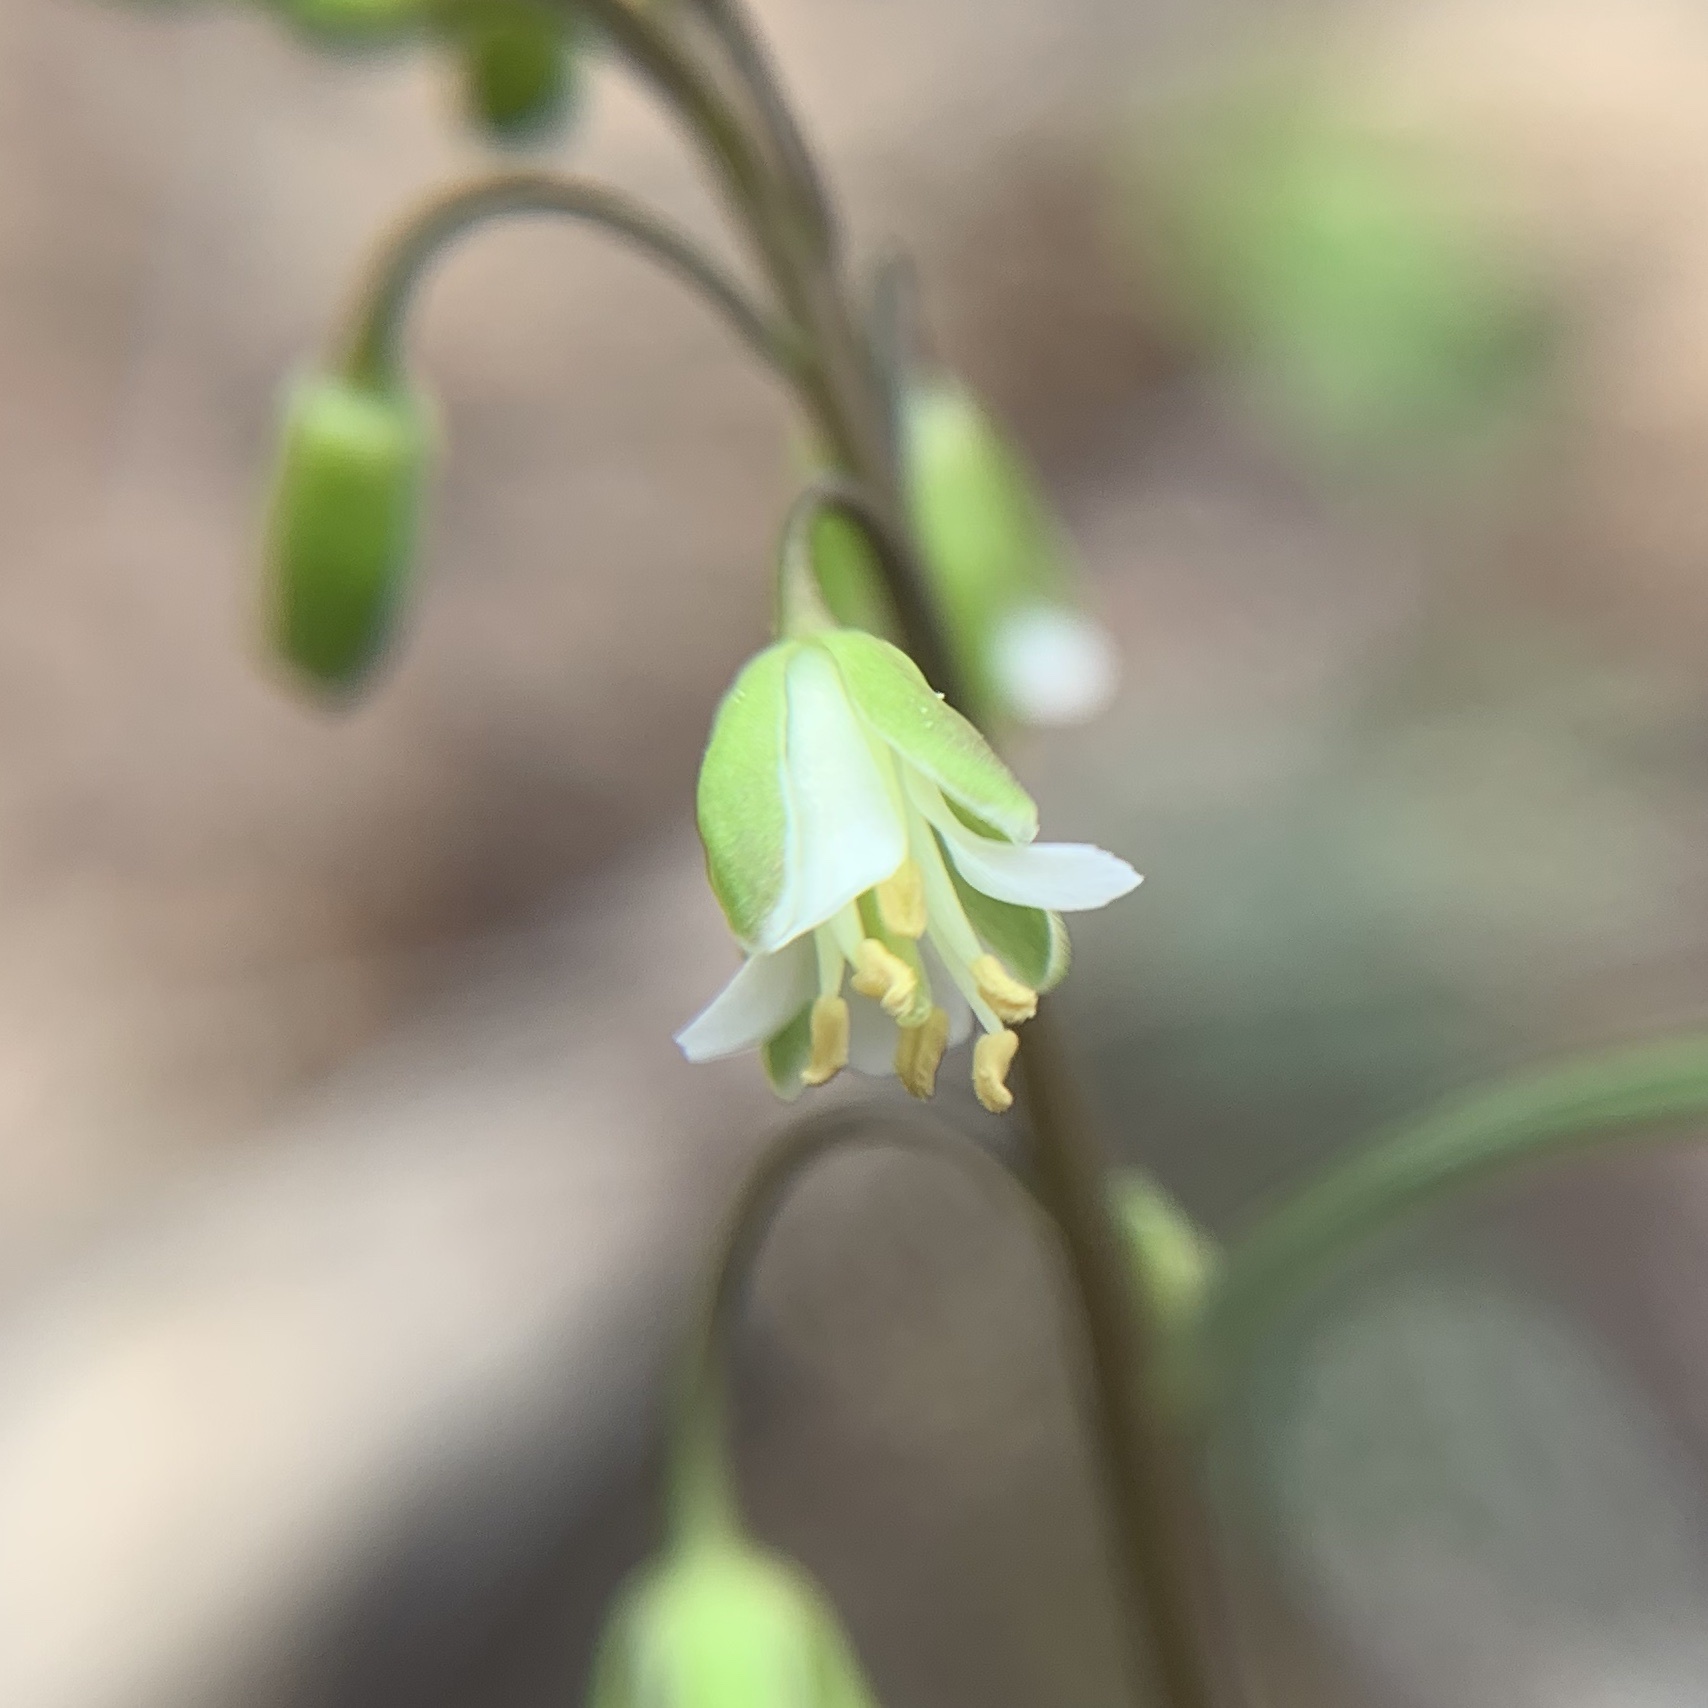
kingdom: Plantae
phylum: Tracheophyta
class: Magnoliopsida
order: Brassicales
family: Brassicaceae
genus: Borodinia
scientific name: Borodinia laevigata
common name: Smooth rockcress
